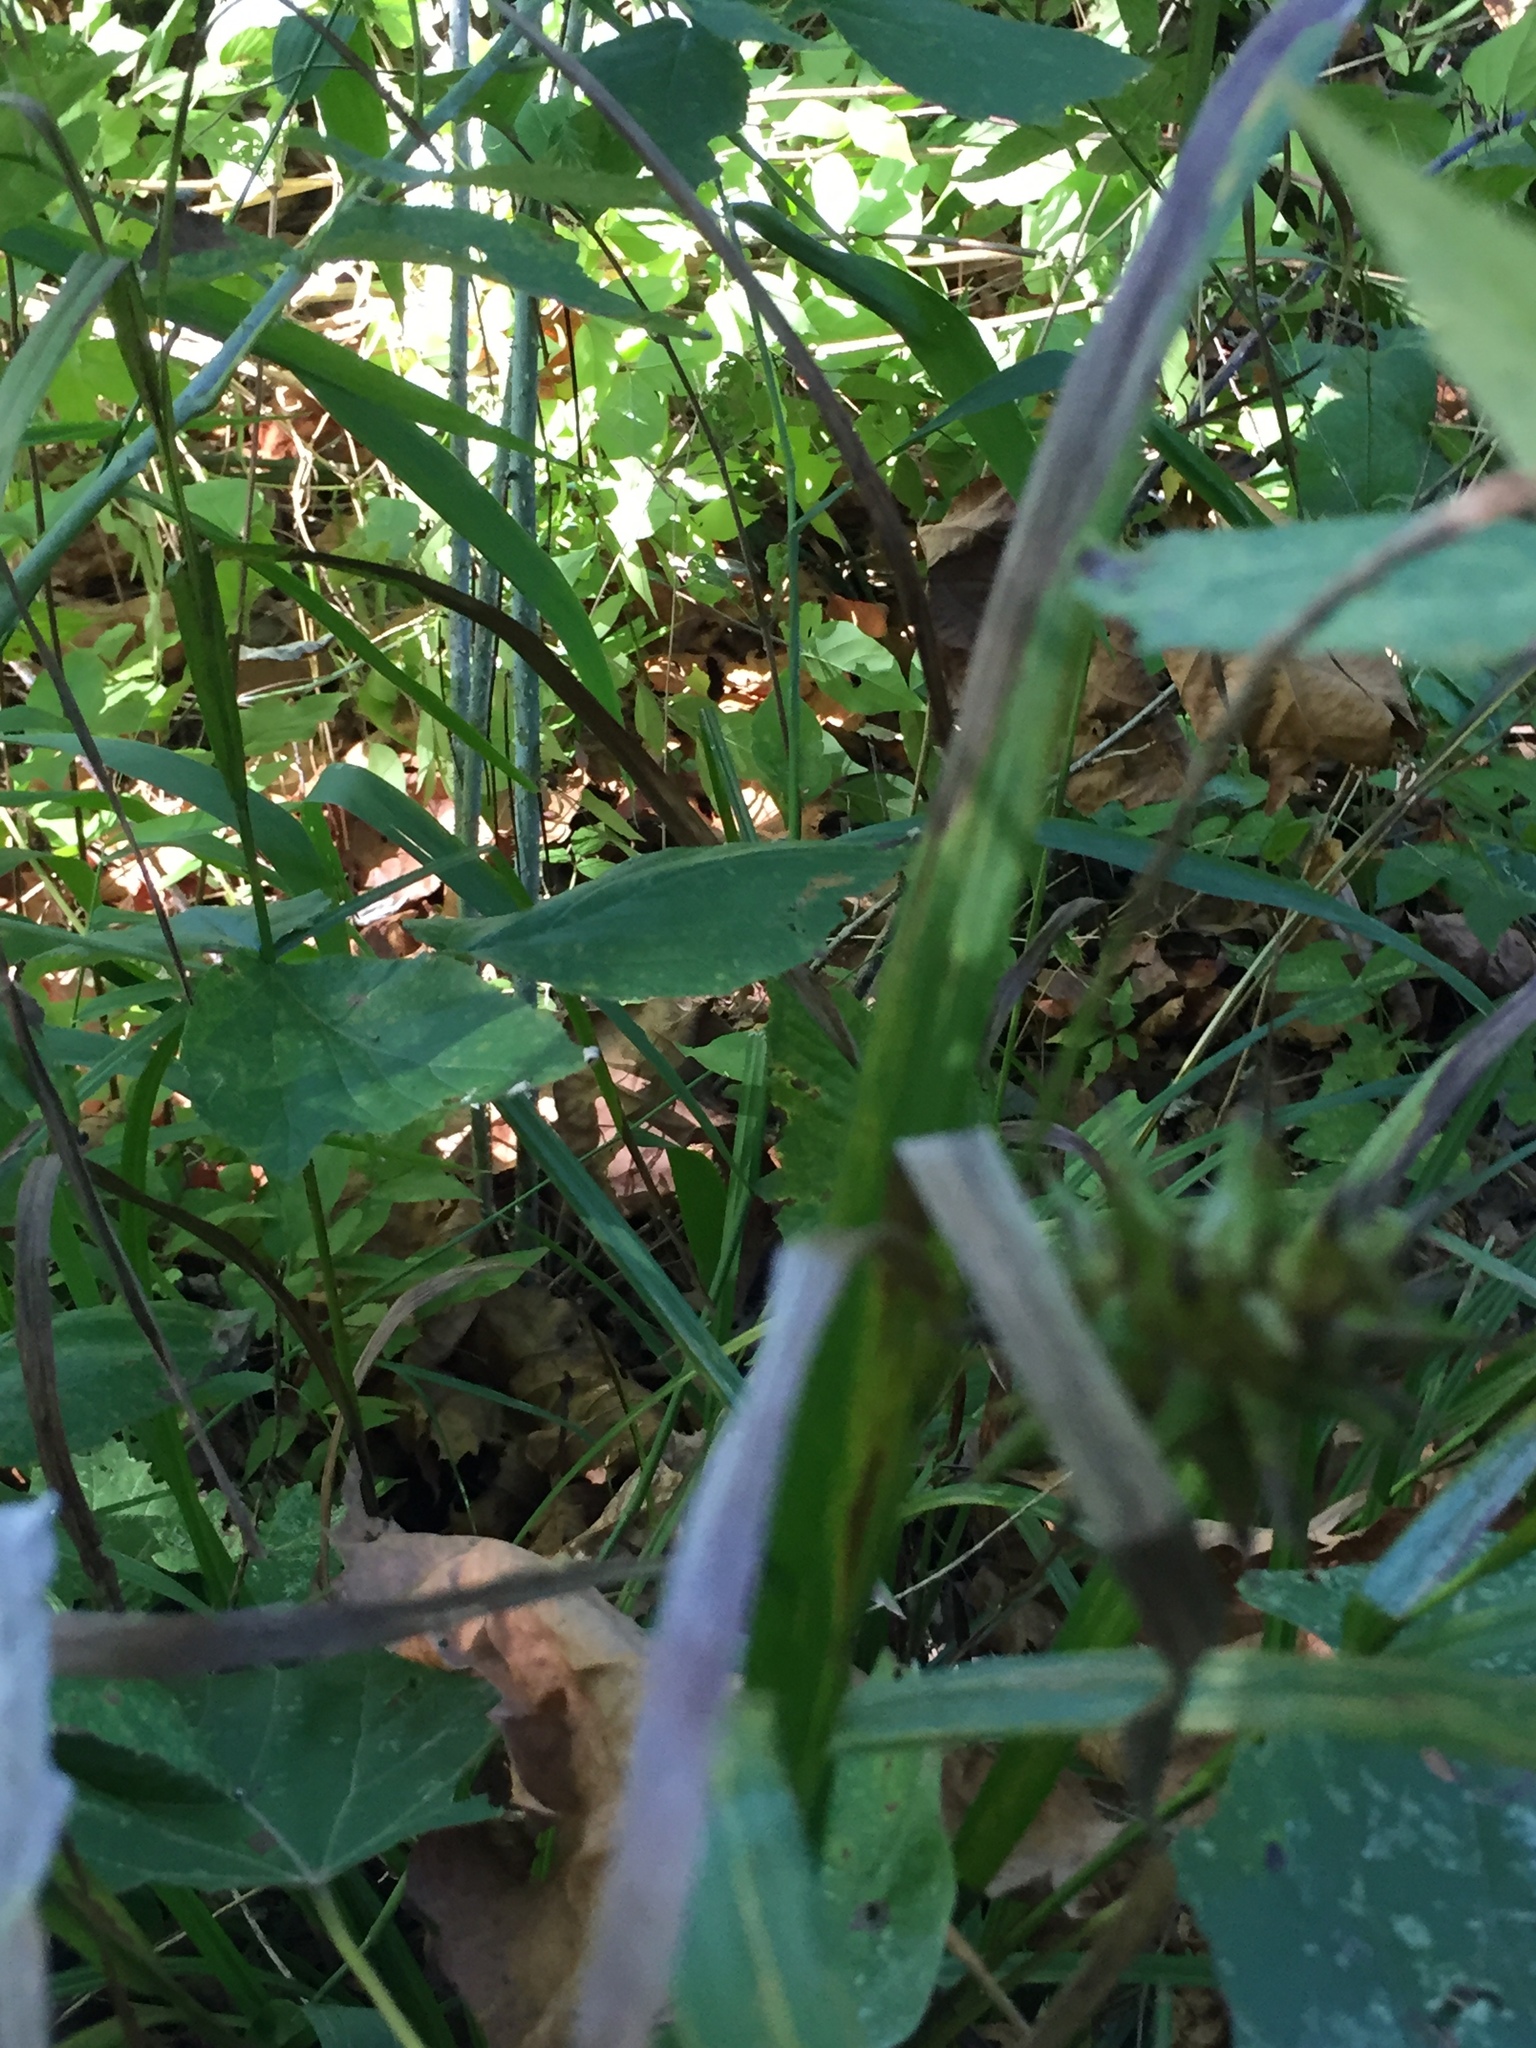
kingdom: Plantae
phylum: Tracheophyta
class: Liliopsida
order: Poales
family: Cyperaceae
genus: Carex
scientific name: Carex grayi
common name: Asa gray's sedge
